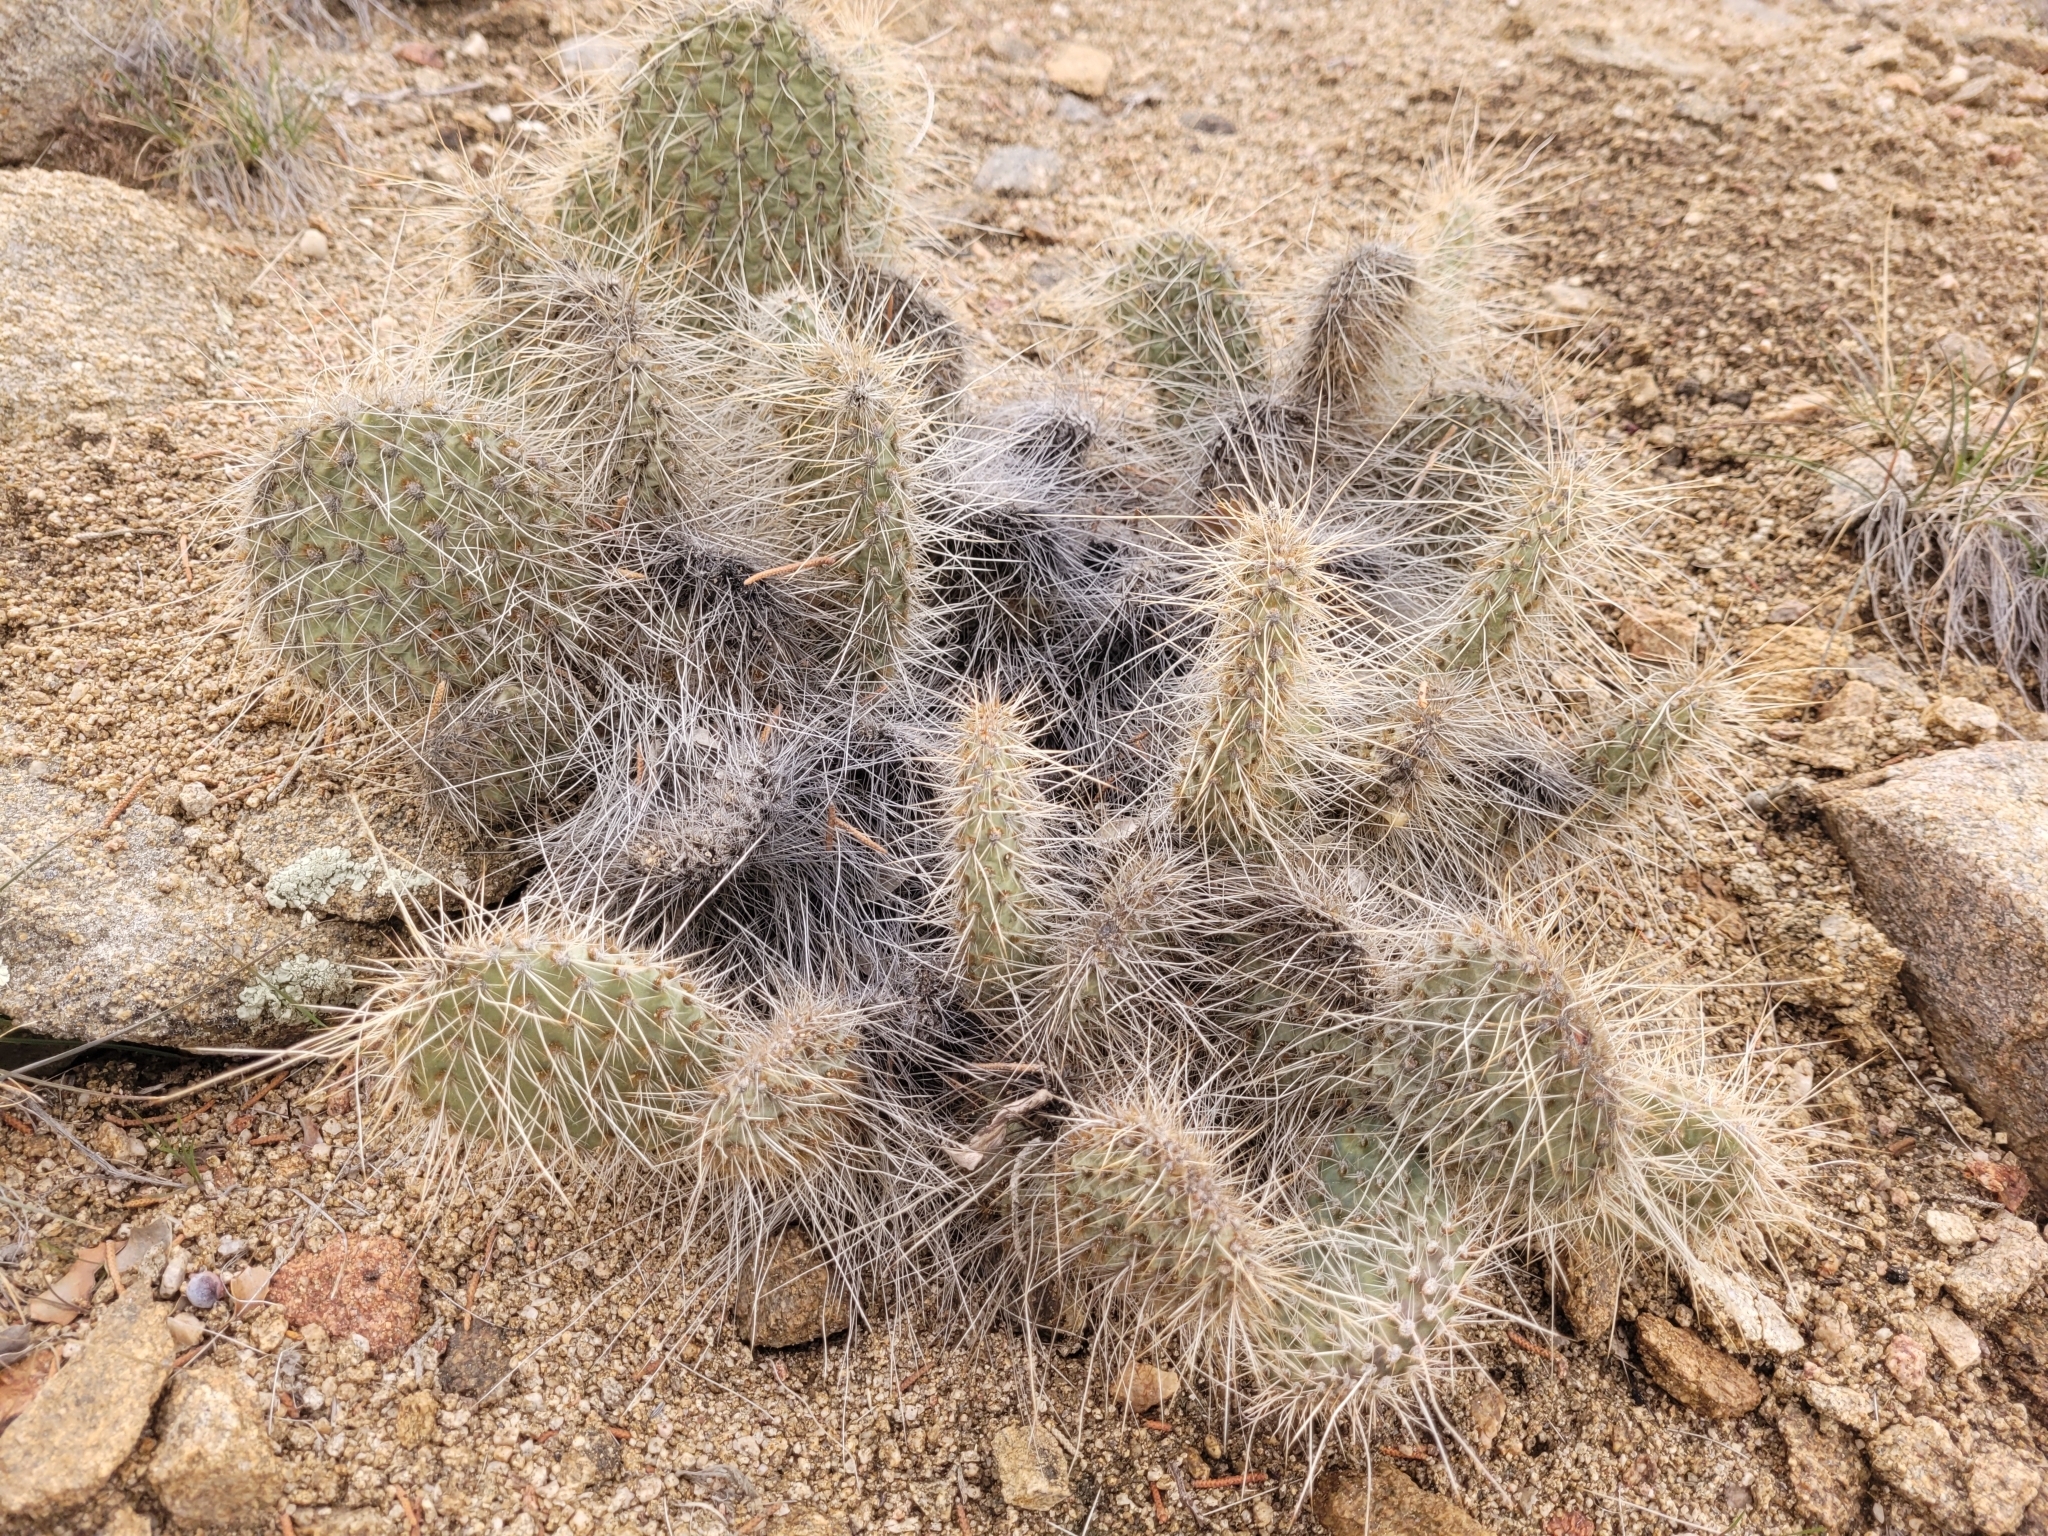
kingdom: Plantae
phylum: Tracheophyta
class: Magnoliopsida
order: Caryophyllales
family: Cactaceae
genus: Opuntia
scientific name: Opuntia polyacantha
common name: Plains prickly-pear
